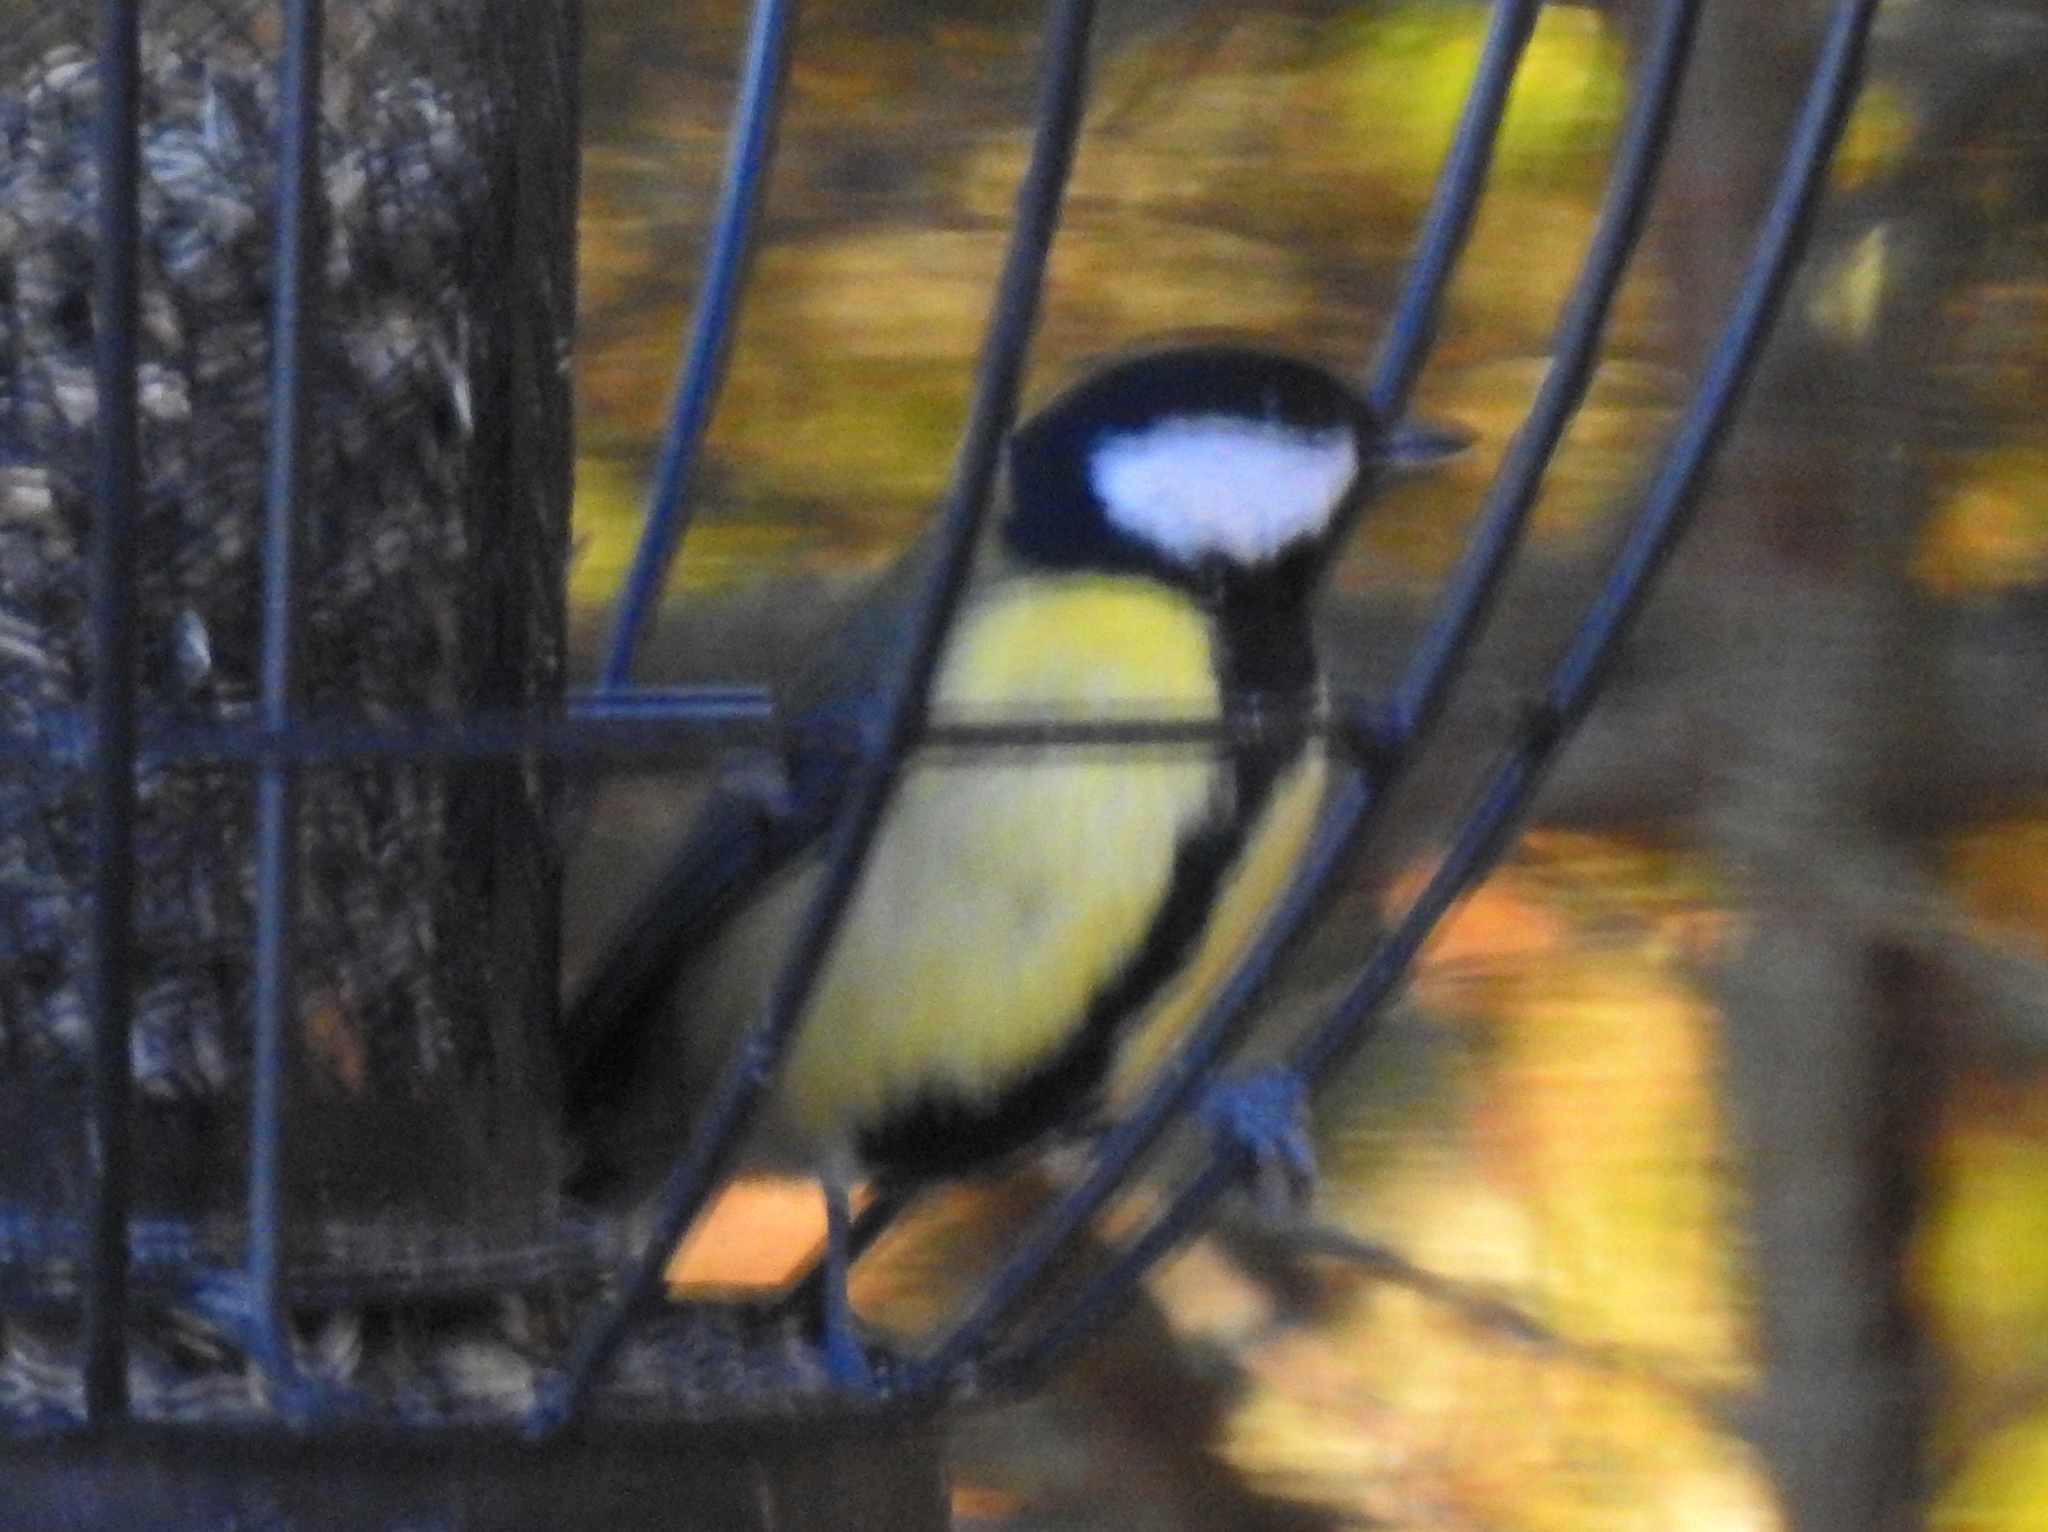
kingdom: Animalia
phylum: Chordata
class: Aves
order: Passeriformes
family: Paridae
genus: Parus
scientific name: Parus major
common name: Great tit
